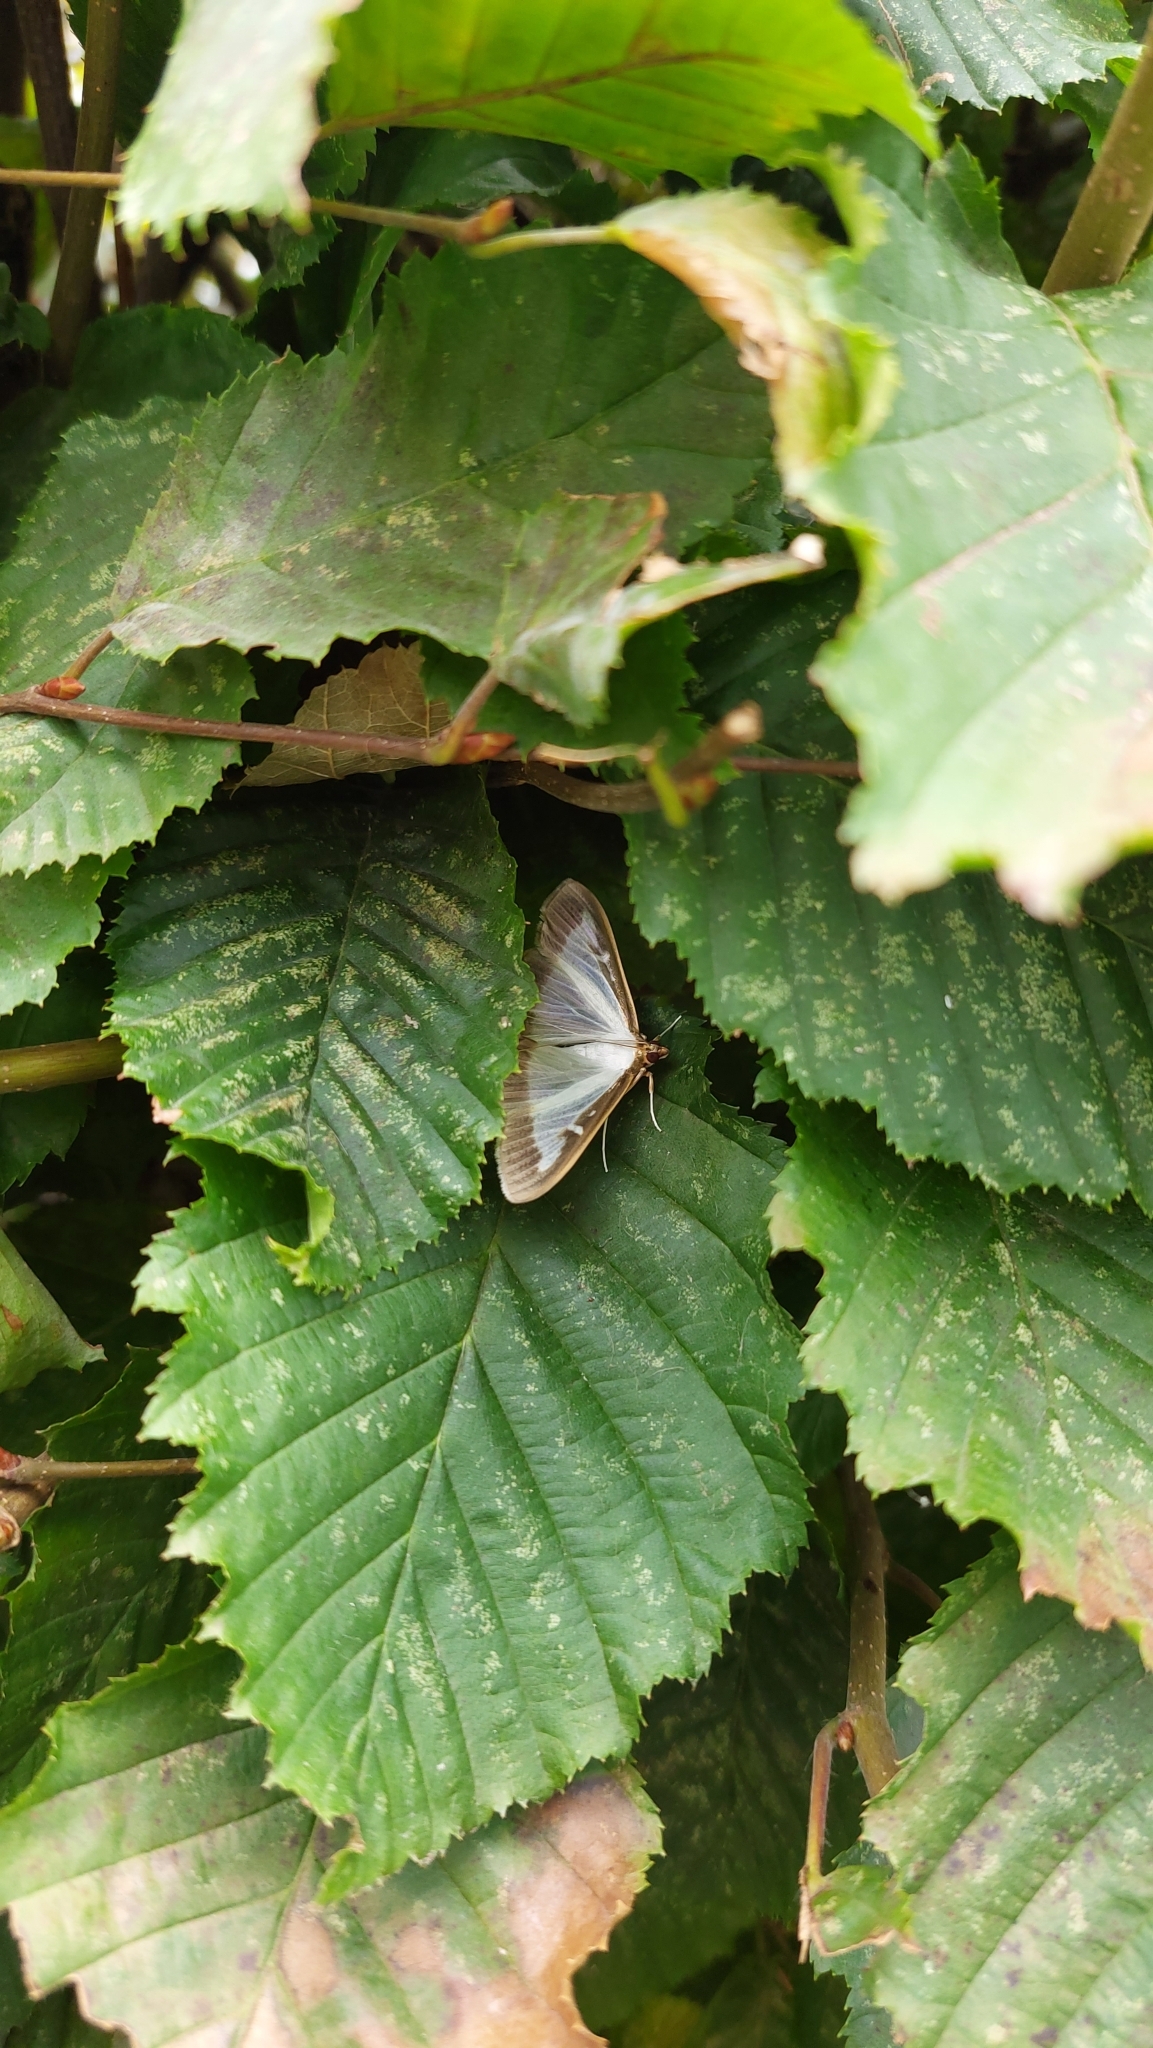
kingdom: Animalia
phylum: Arthropoda
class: Insecta
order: Lepidoptera
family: Crambidae
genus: Cydalima
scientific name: Cydalima perspectalis
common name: Box tree moth
